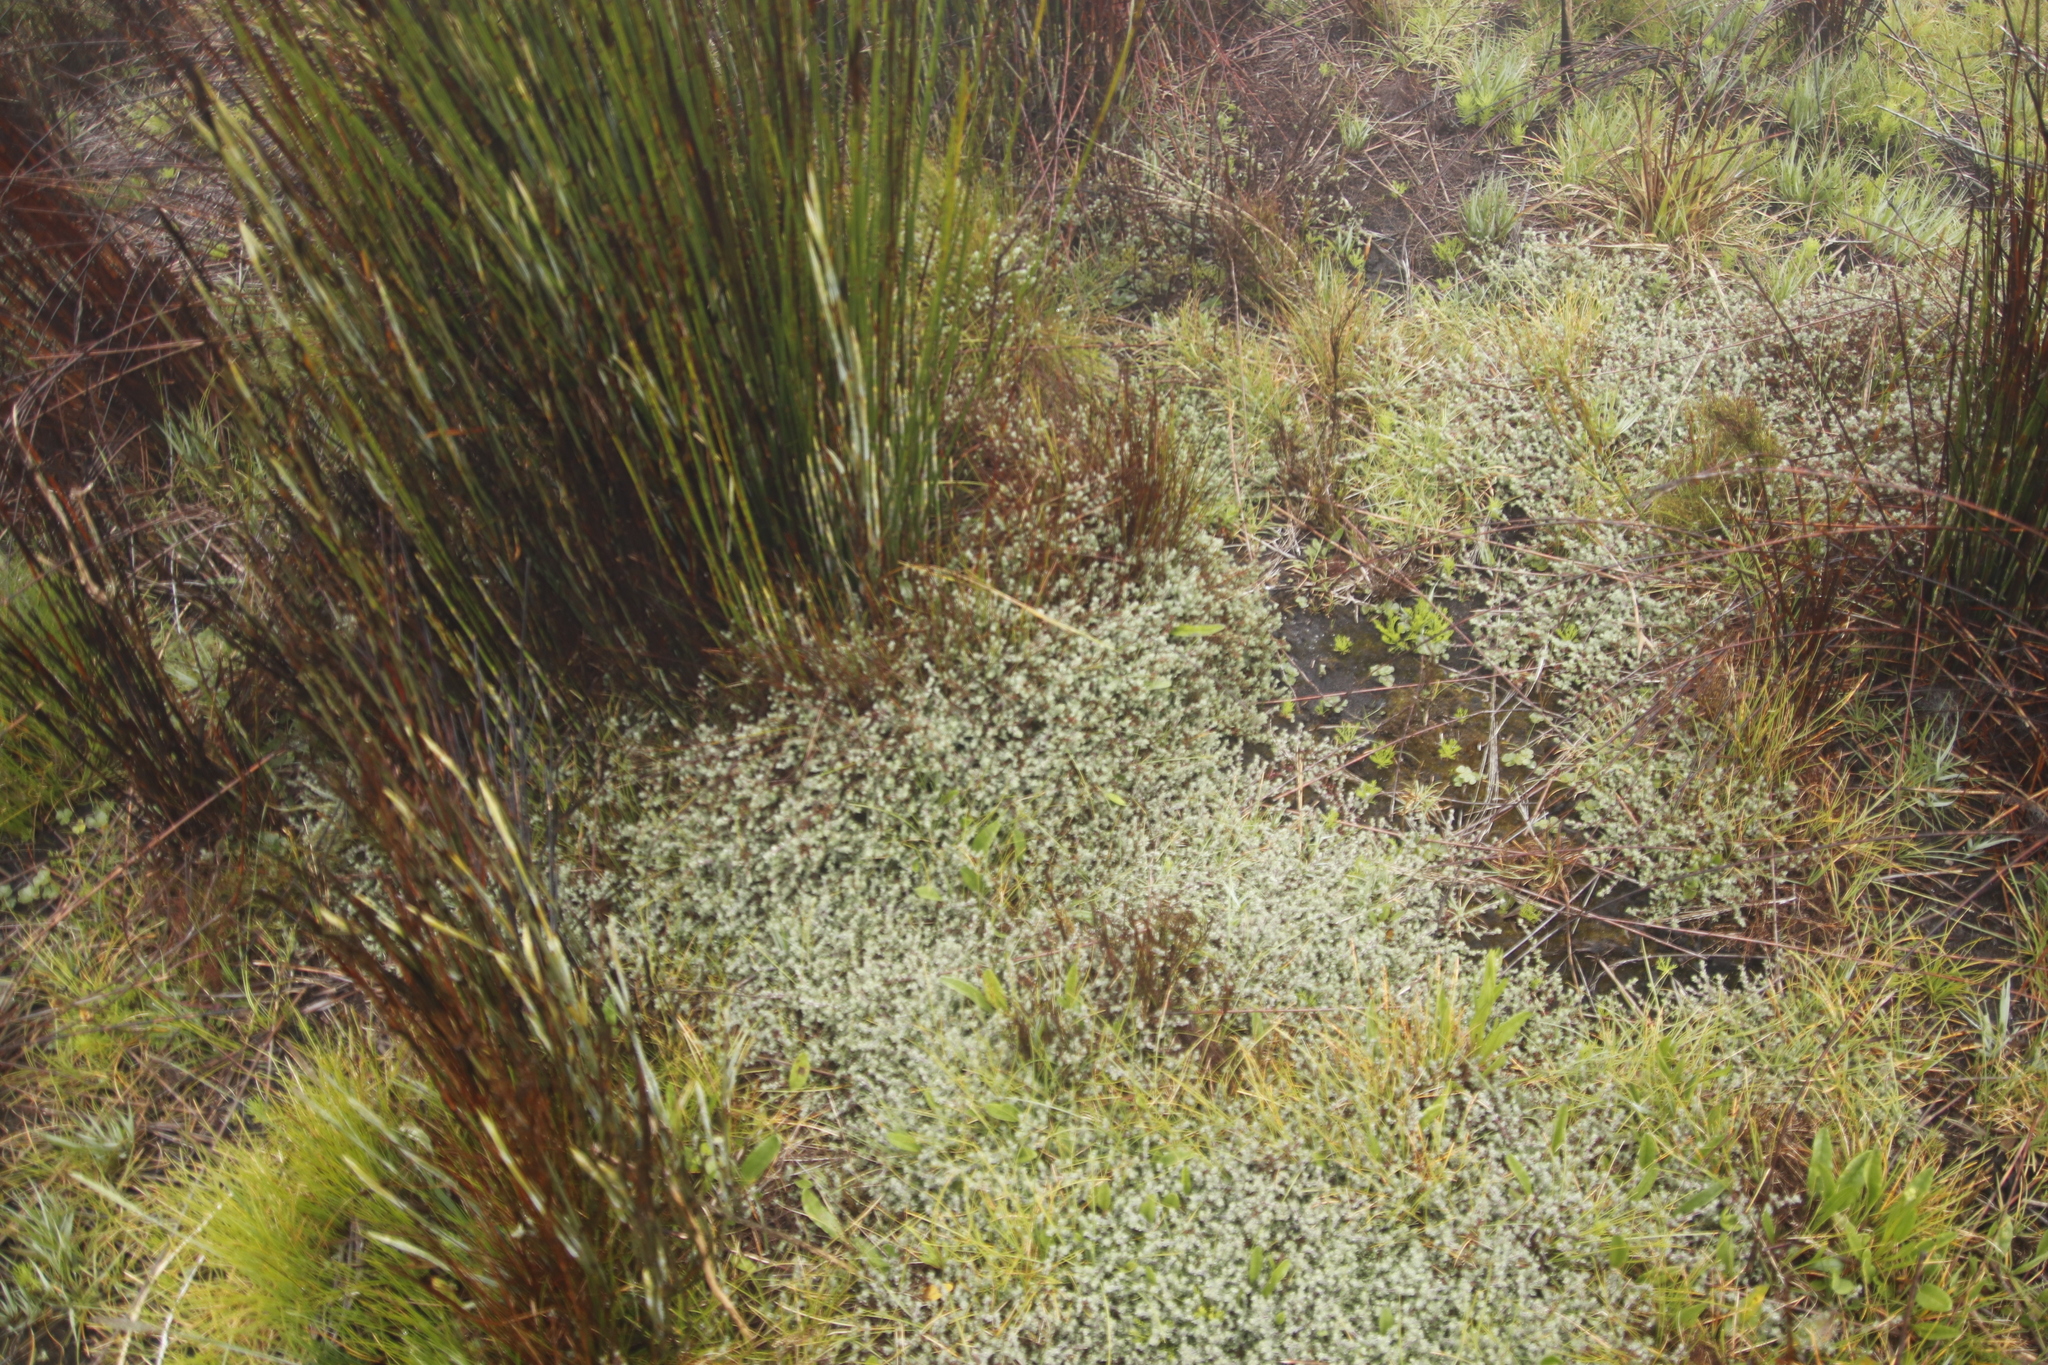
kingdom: Plantae
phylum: Tracheophyta
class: Magnoliopsida
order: Rosales
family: Rosaceae
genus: Cliffortia
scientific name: Cliffortia tricuspidata
